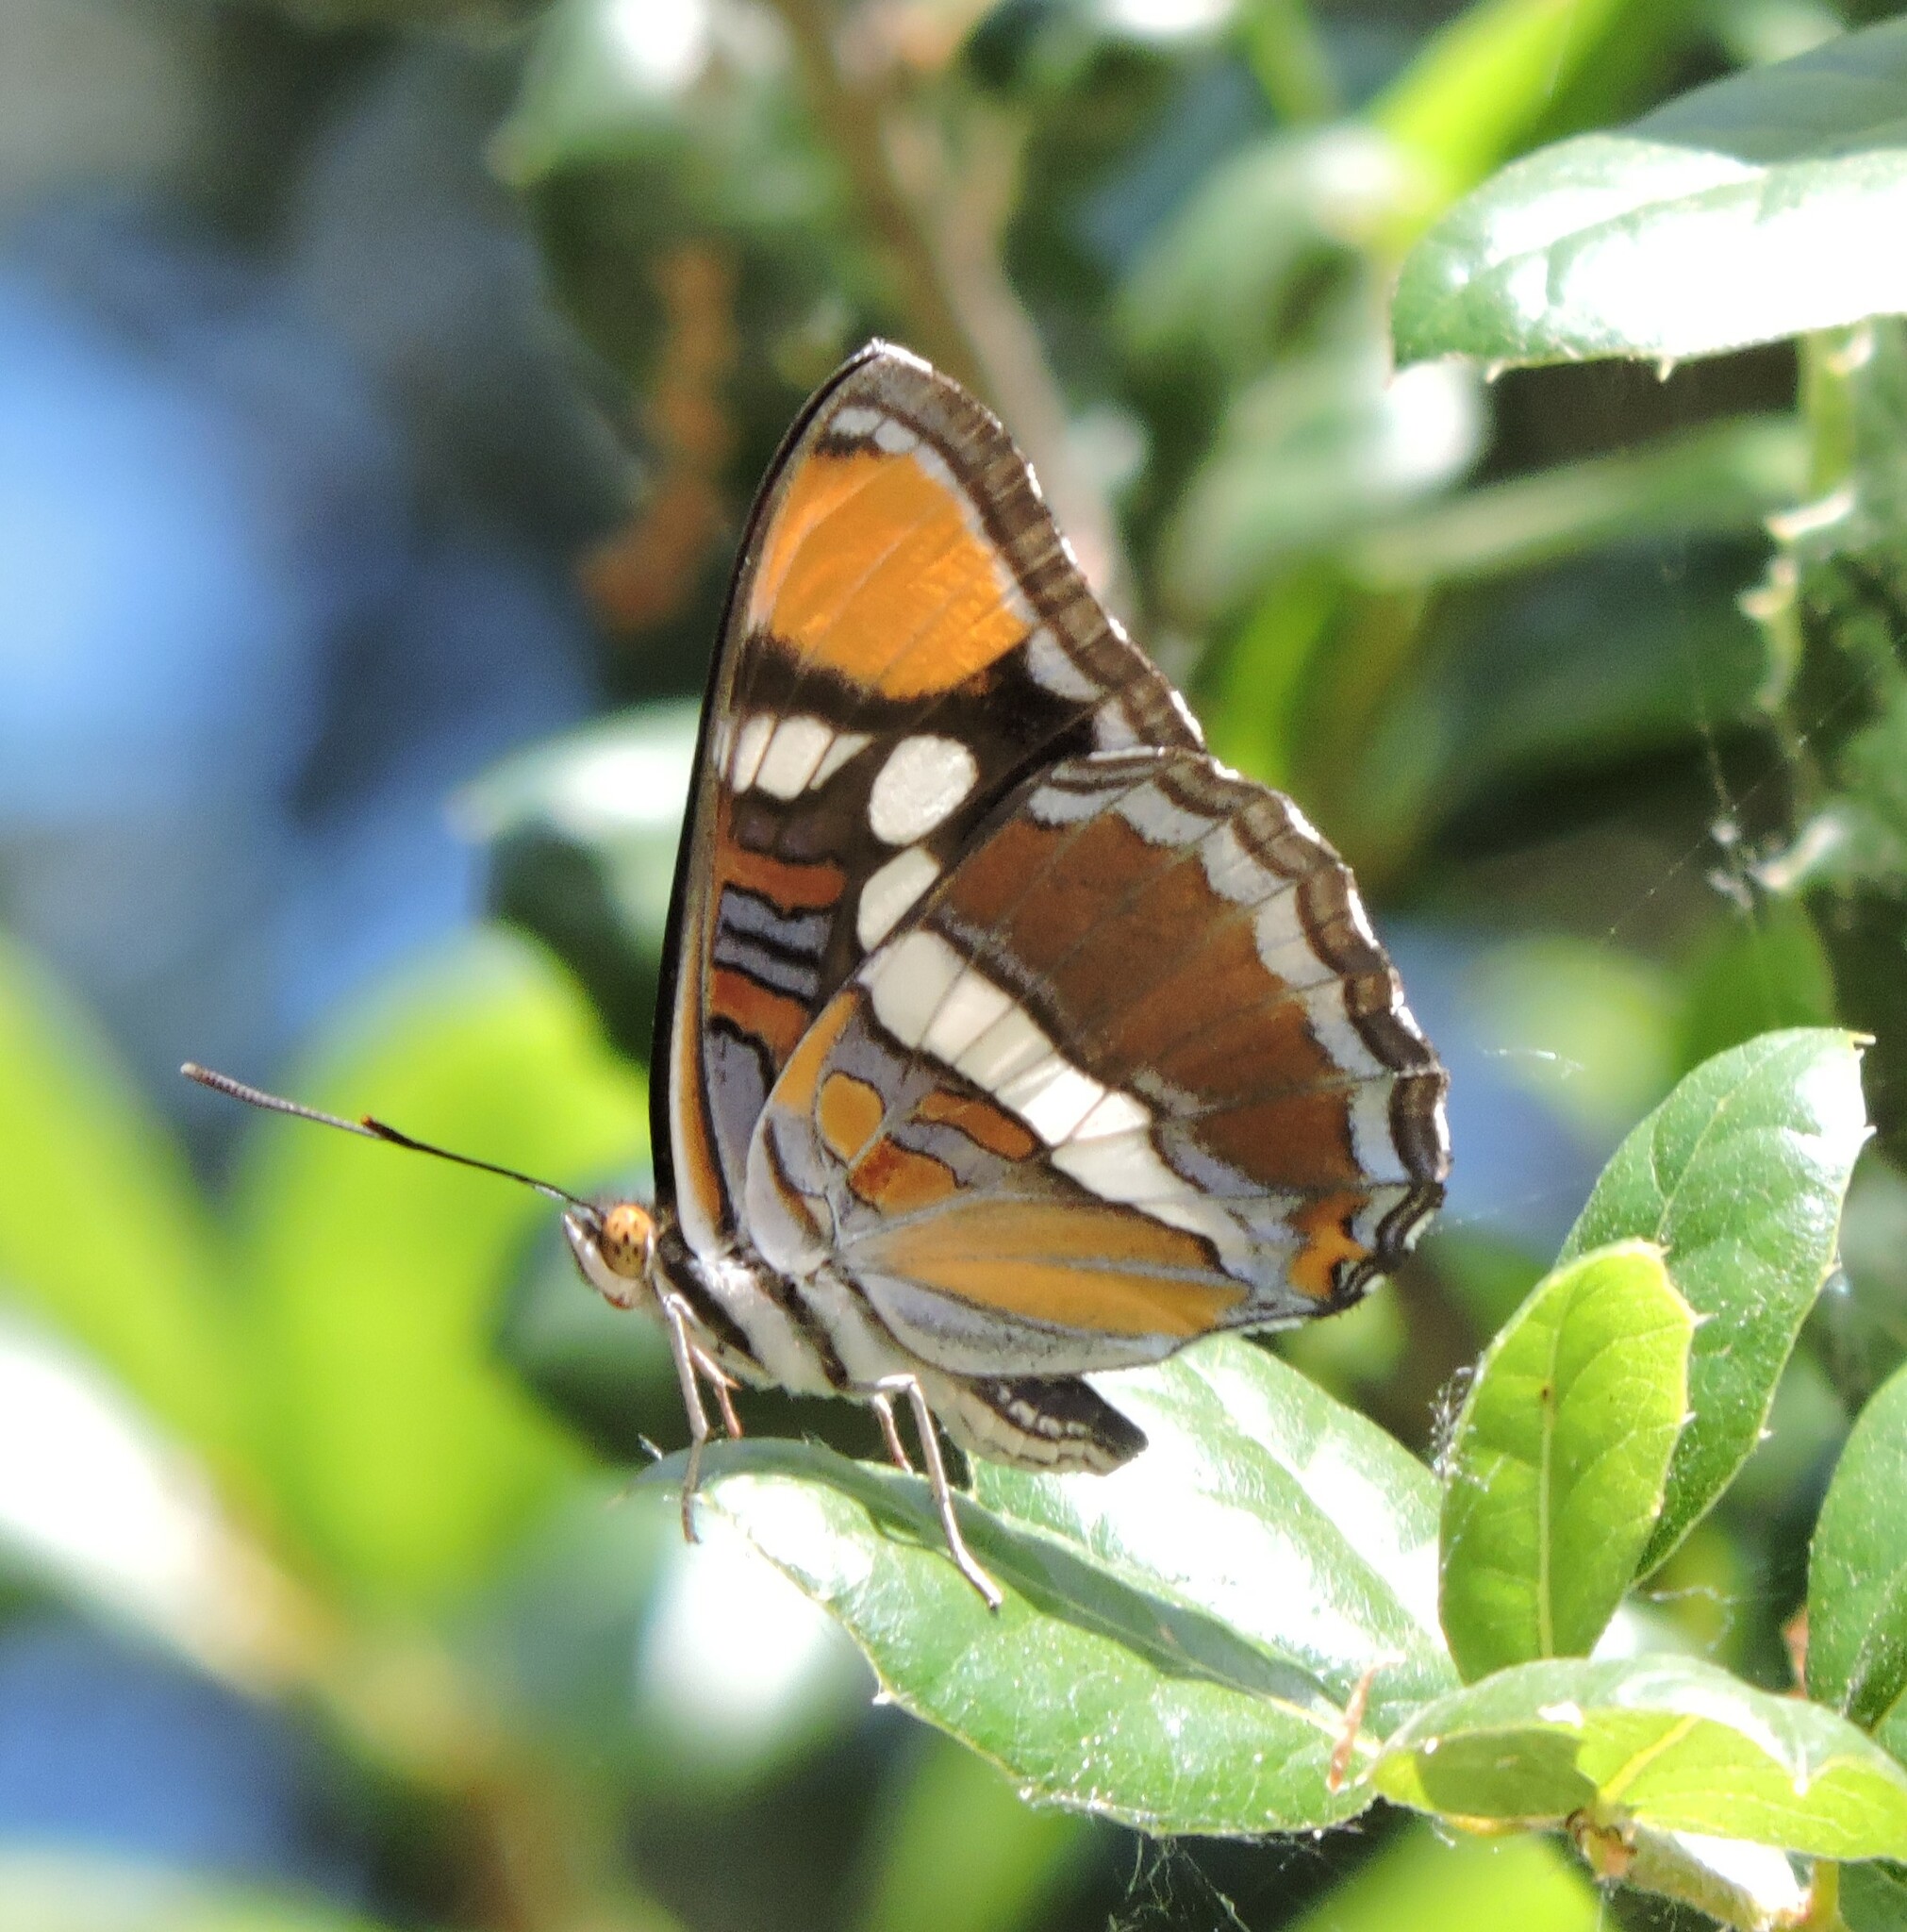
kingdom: Animalia
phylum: Arthropoda
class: Insecta
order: Lepidoptera
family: Nymphalidae
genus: Limenitis
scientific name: Limenitis bredowii
